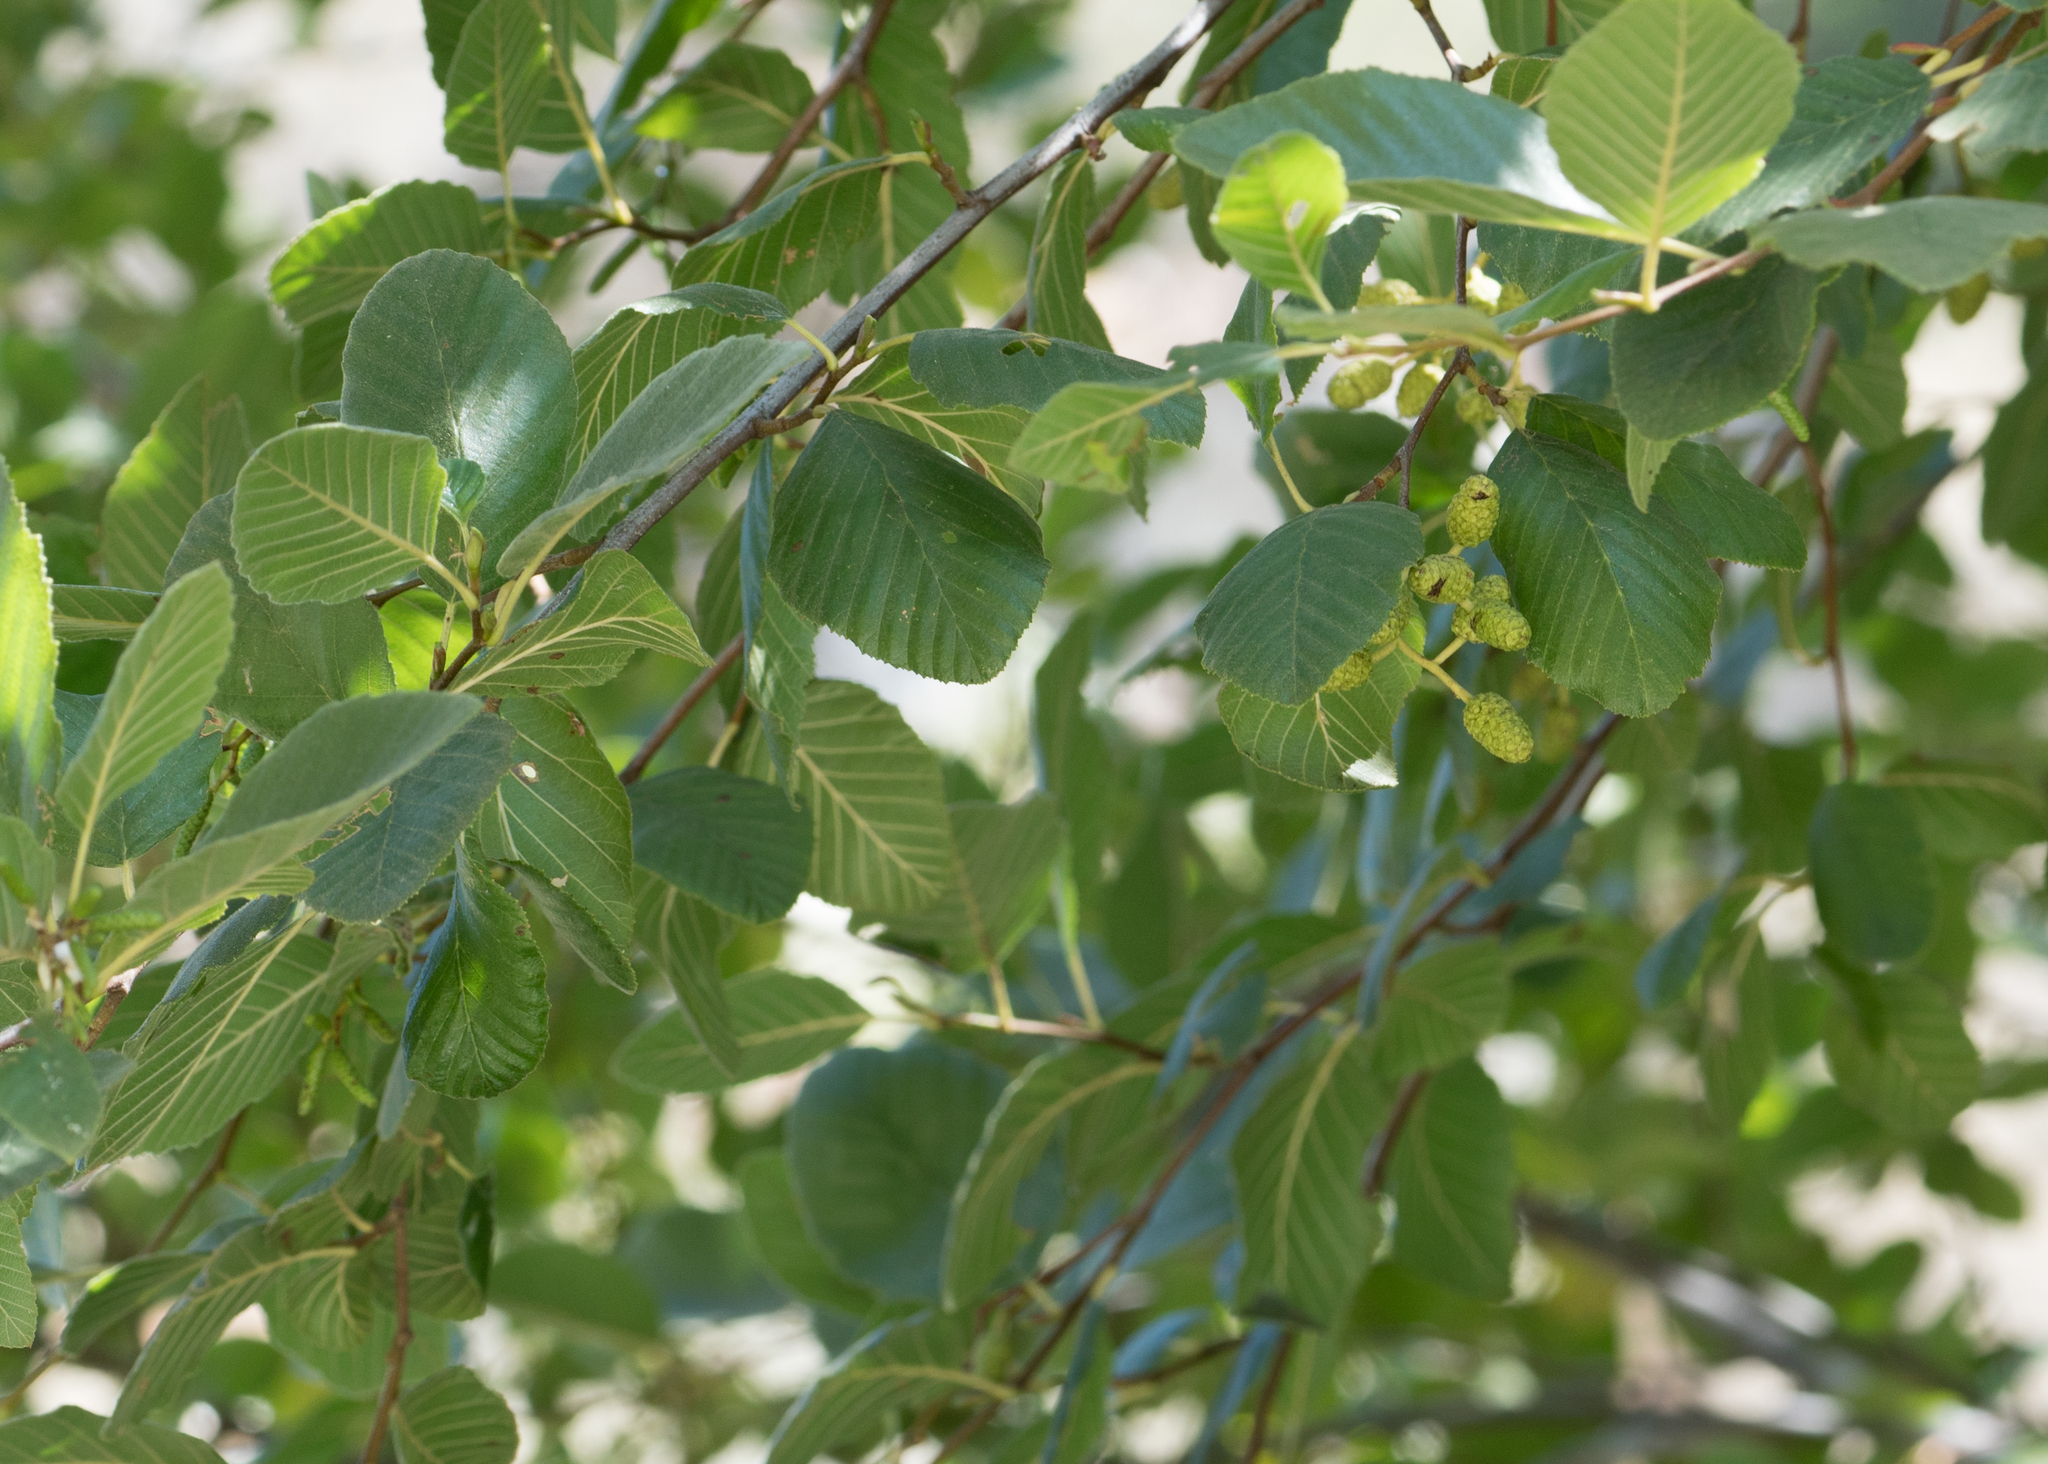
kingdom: Plantae
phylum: Tracheophyta
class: Magnoliopsida
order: Fagales
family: Betulaceae
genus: Alnus
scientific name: Alnus rhombifolia
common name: California alder
